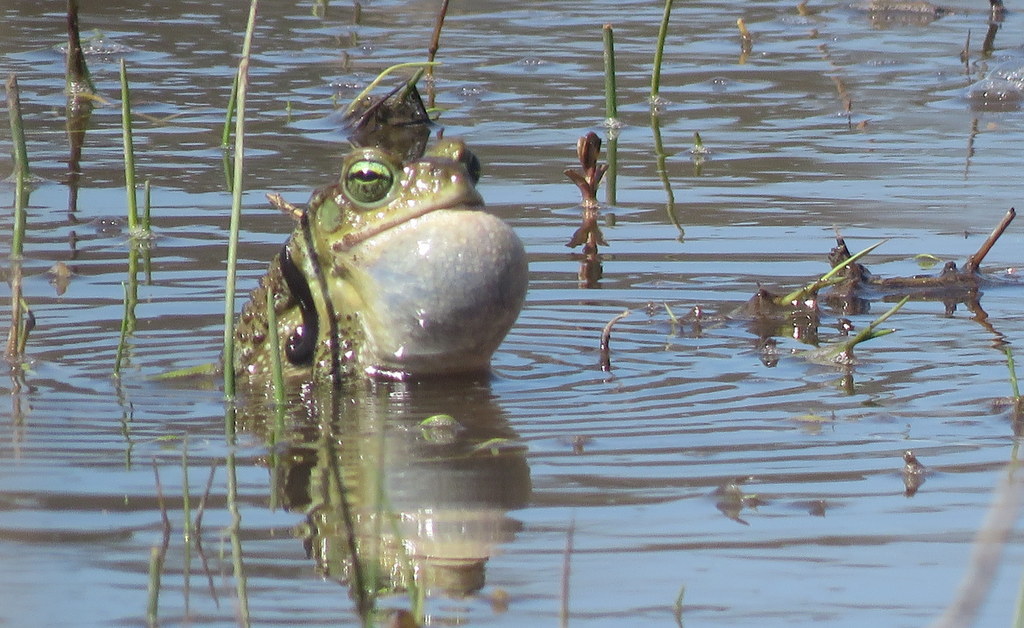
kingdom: Animalia
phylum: Chordata
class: Amphibia
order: Anura
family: Bufonidae
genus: Rhinella
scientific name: Rhinella arenarum
